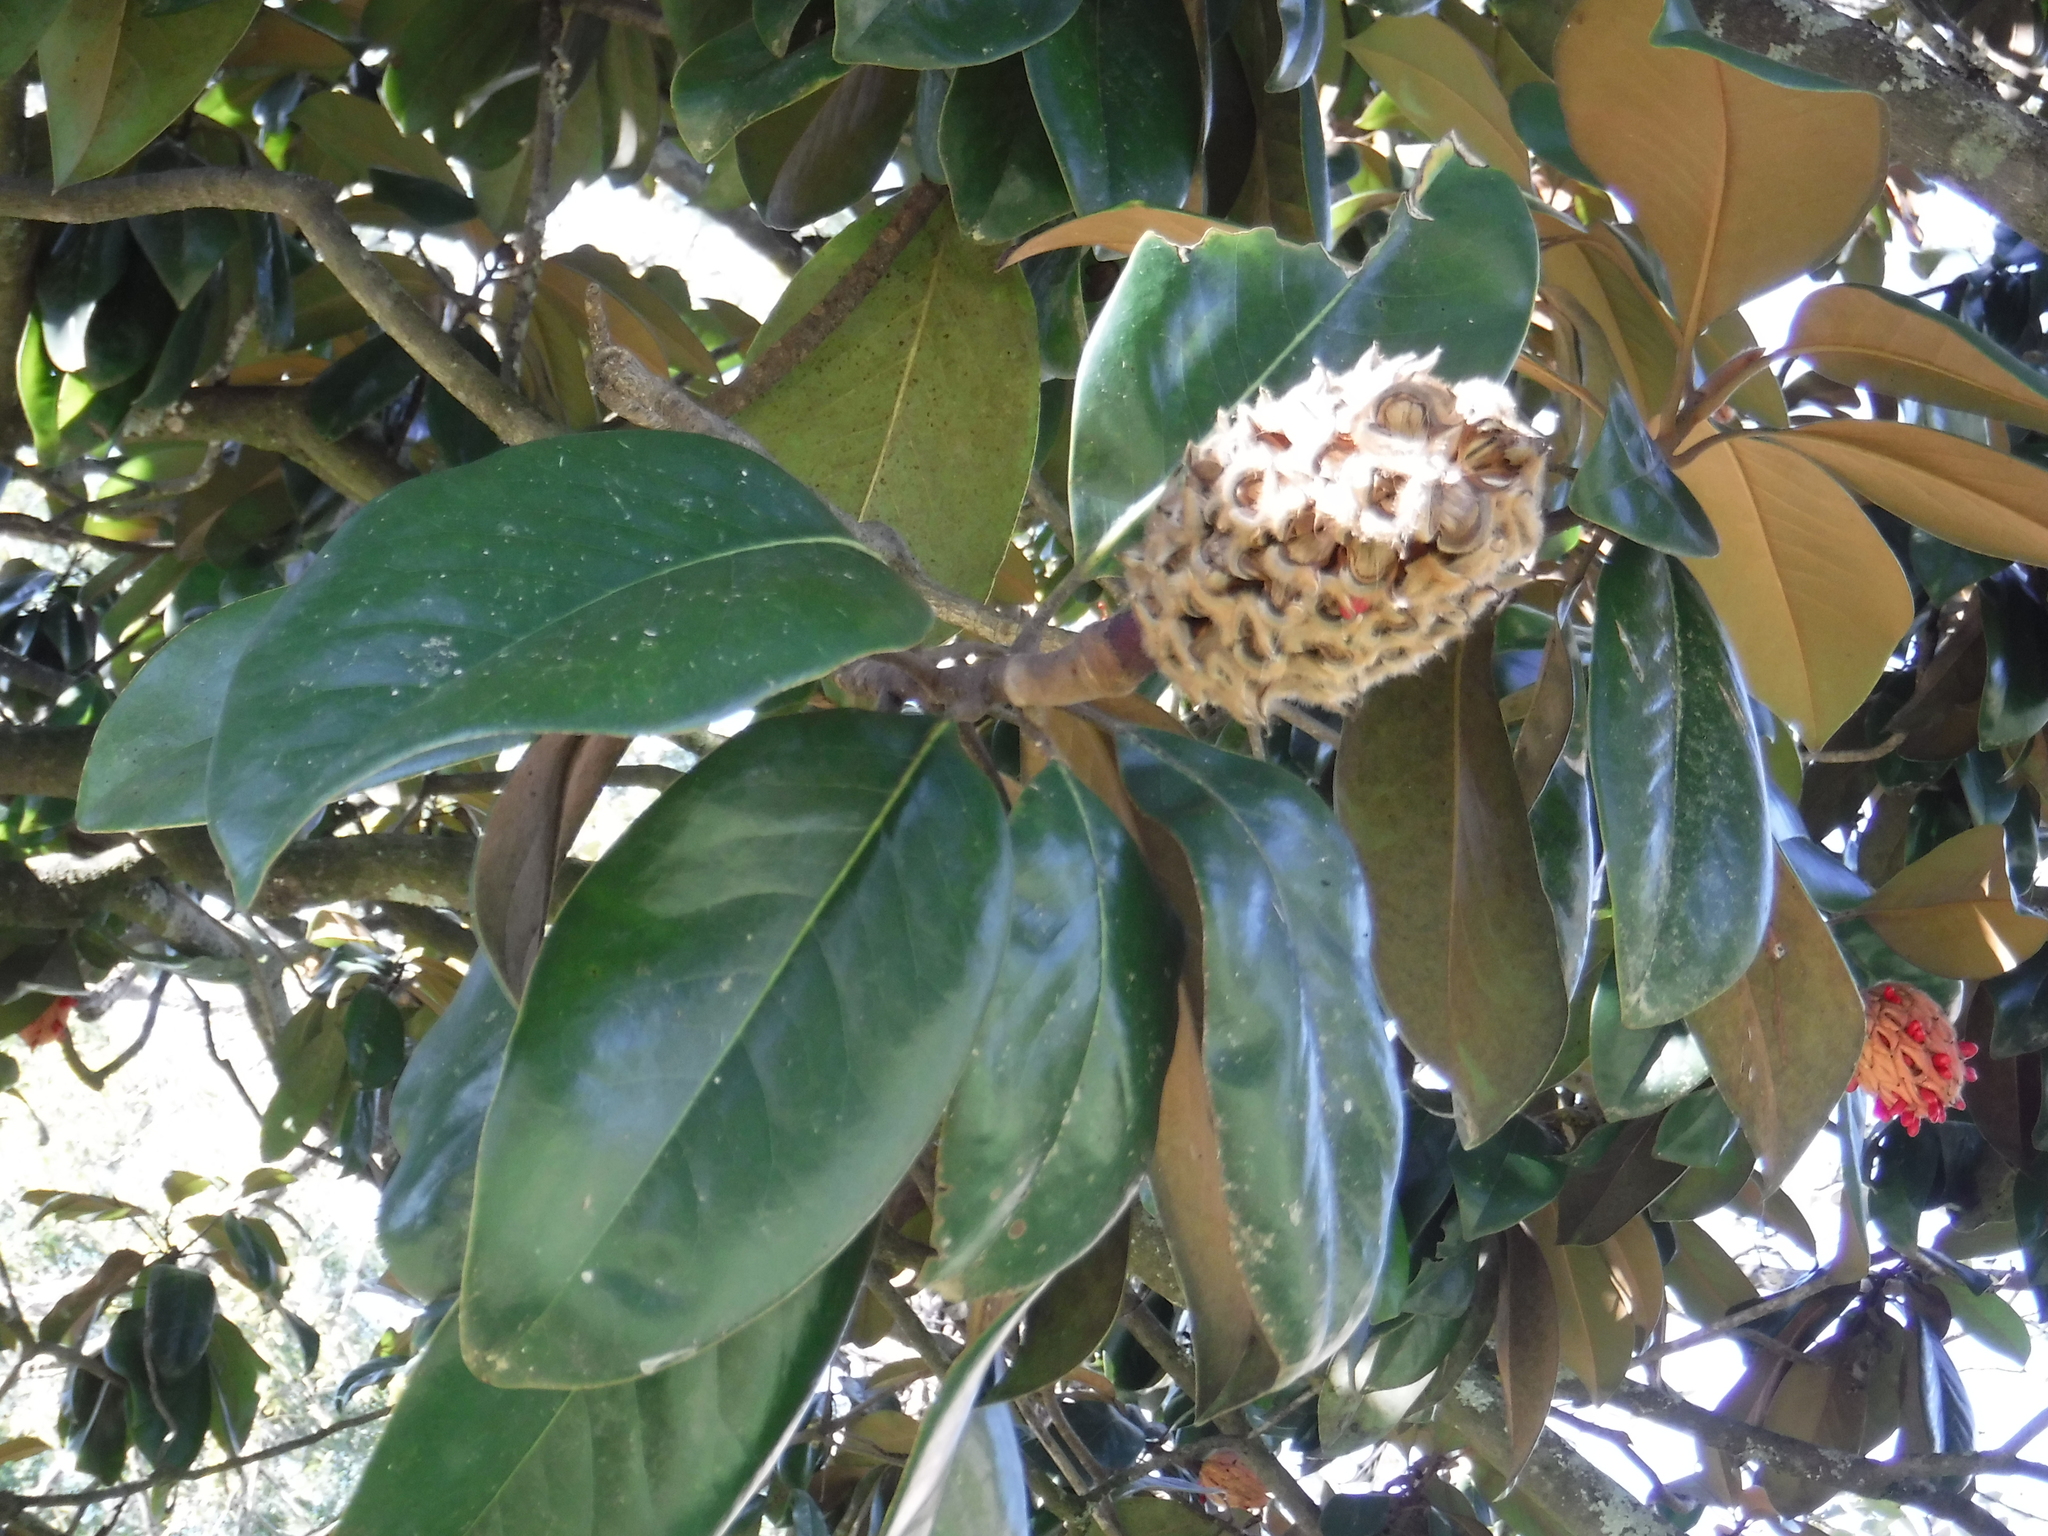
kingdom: Plantae
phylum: Tracheophyta
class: Magnoliopsida
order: Magnoliales
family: Magnoliaceae
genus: Magnolia
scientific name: Magnolia grandiflora
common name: Southern magnolia
